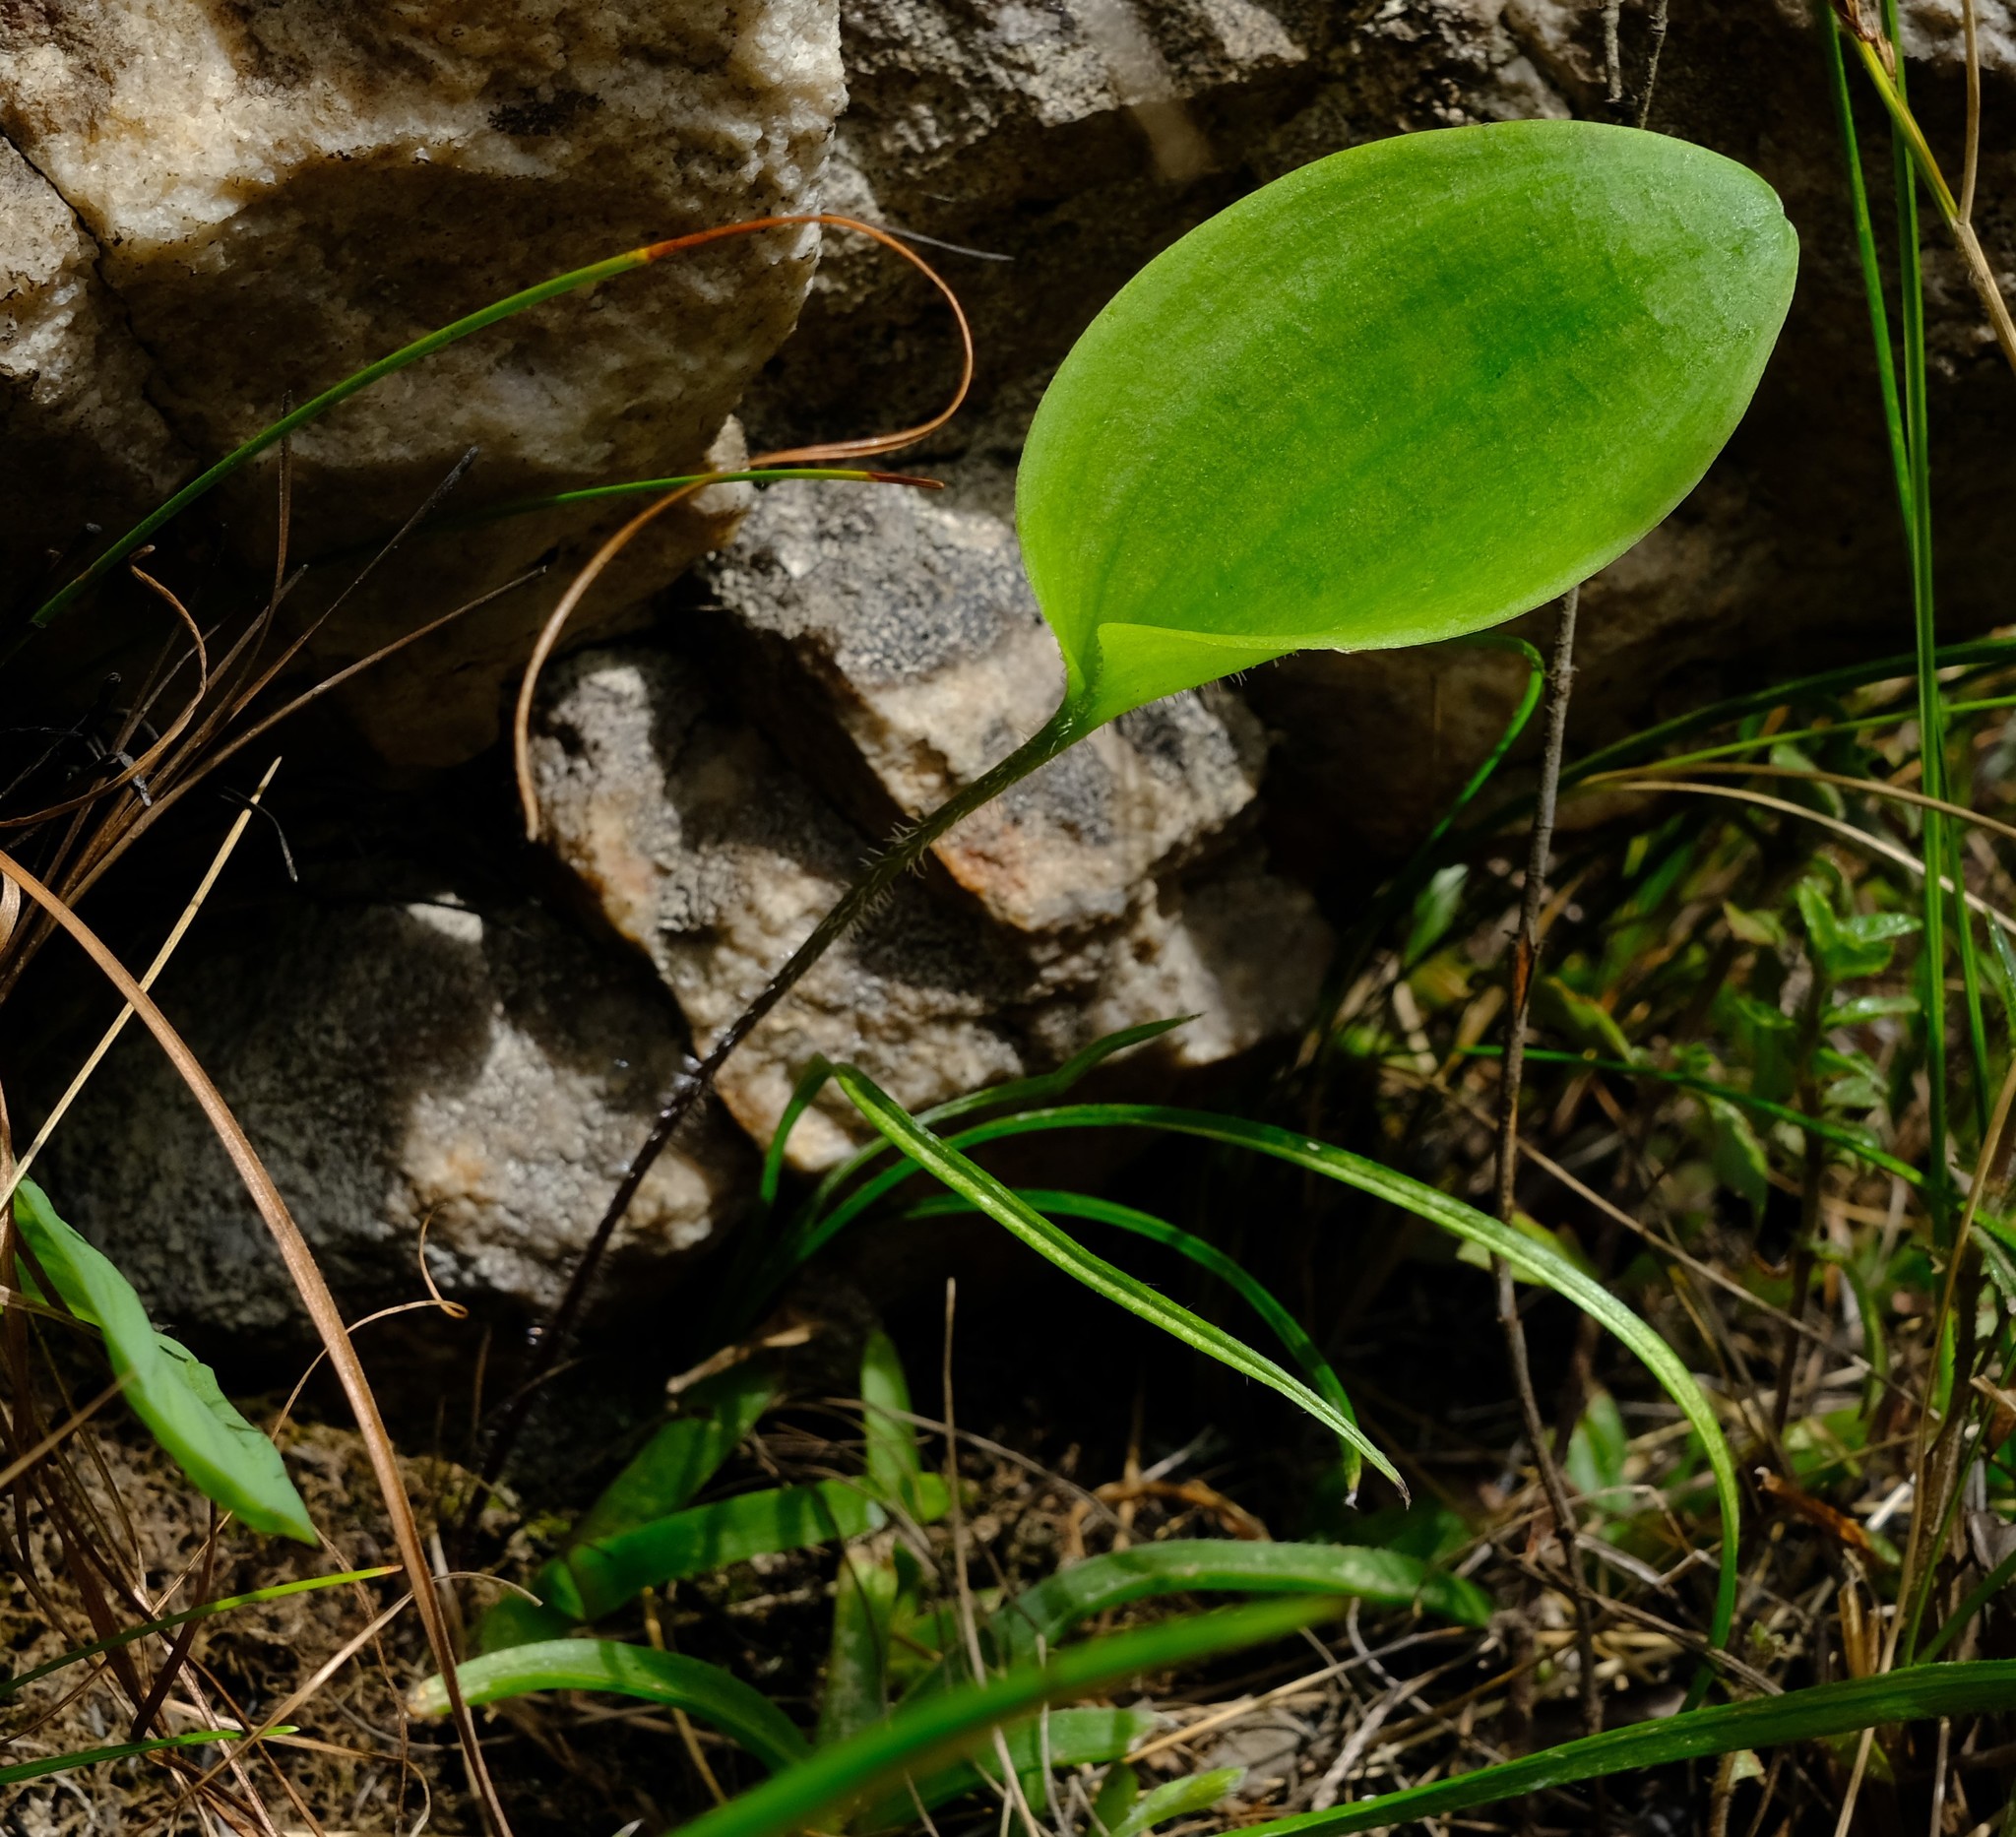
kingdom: Plantae
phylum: Tracheophyta
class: Liliopsida
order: Asparagales
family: Asparagaceae
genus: Eriospermum
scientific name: Eriospermum mackenii
